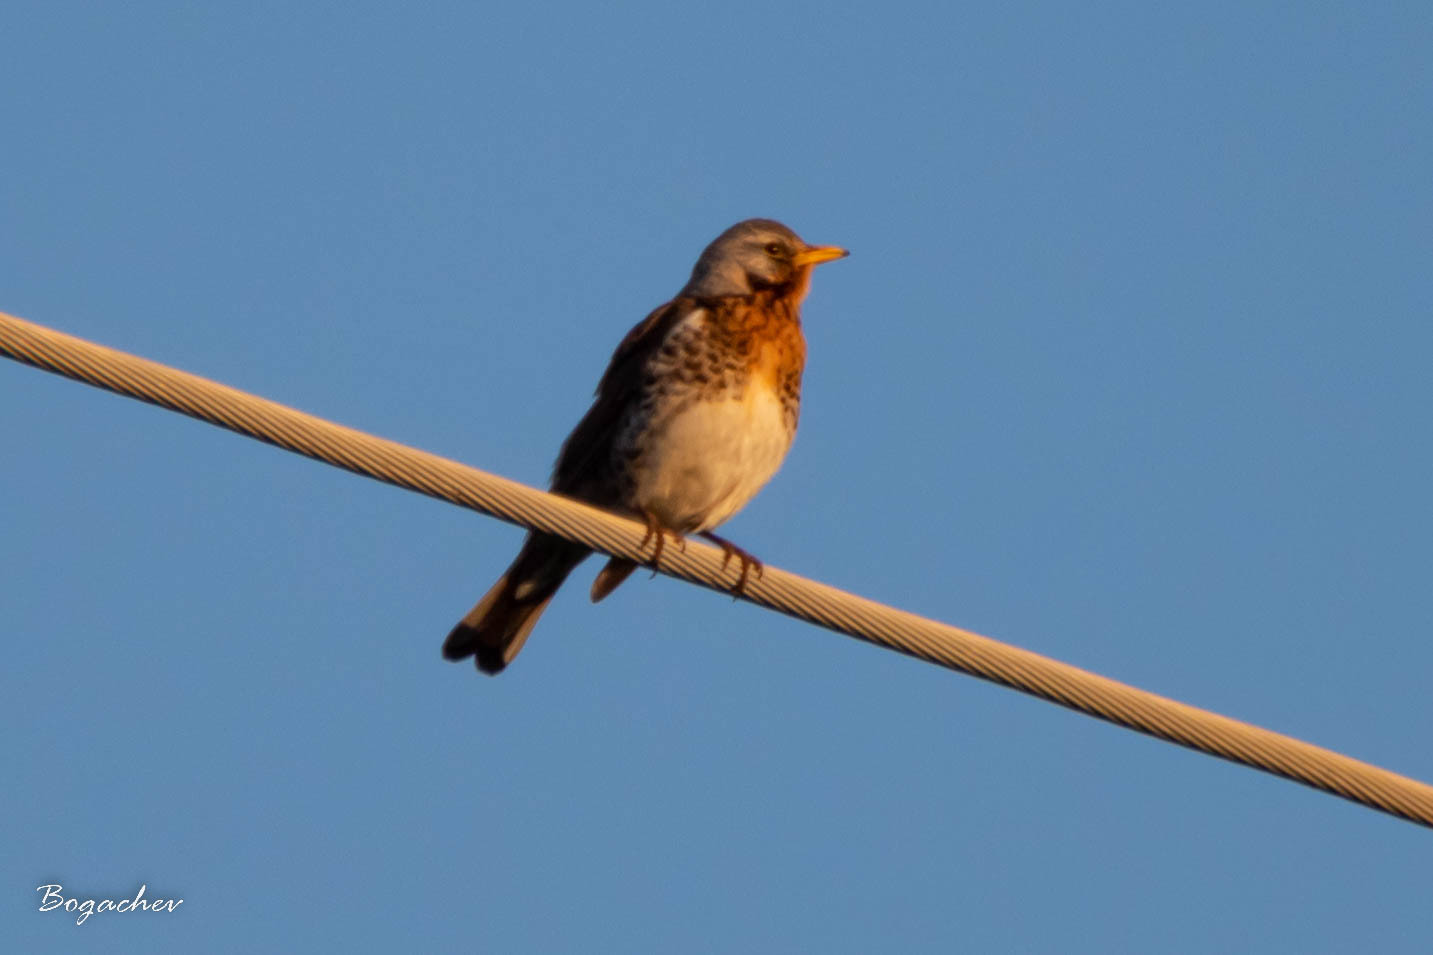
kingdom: Animalia
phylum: Chordata
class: Aves
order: Passeriformes
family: Turdidae
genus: Turdus
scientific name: Turdus pilaris
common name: Fieldfare
